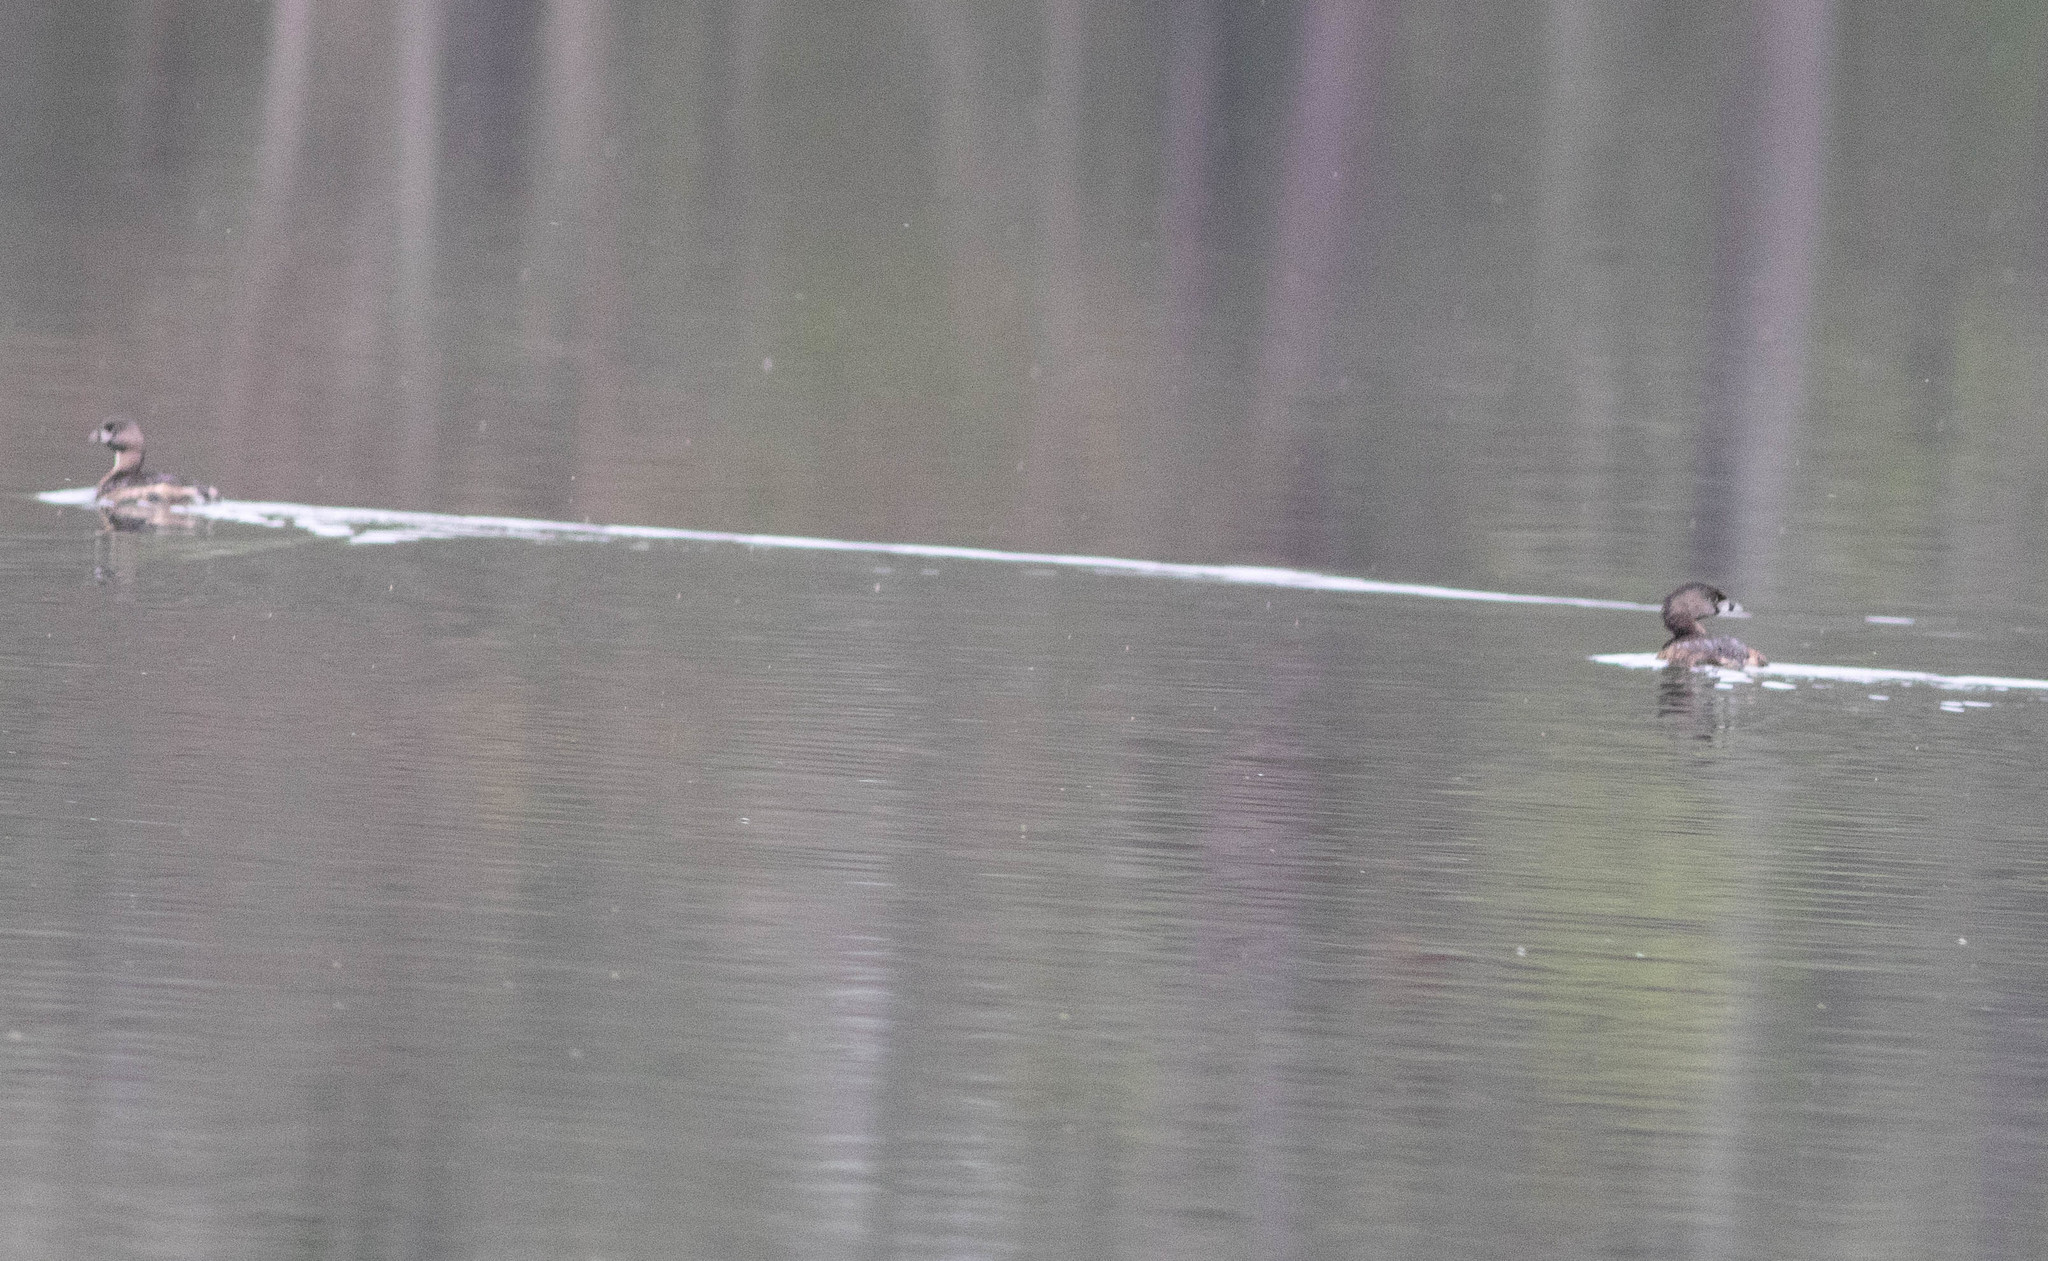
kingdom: Animalia
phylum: Chordata
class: Aves
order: Podicipediformes
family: Podicipedidae
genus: Podilymbus
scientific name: Podilymbus podiceps
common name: Pied-billed grebe
